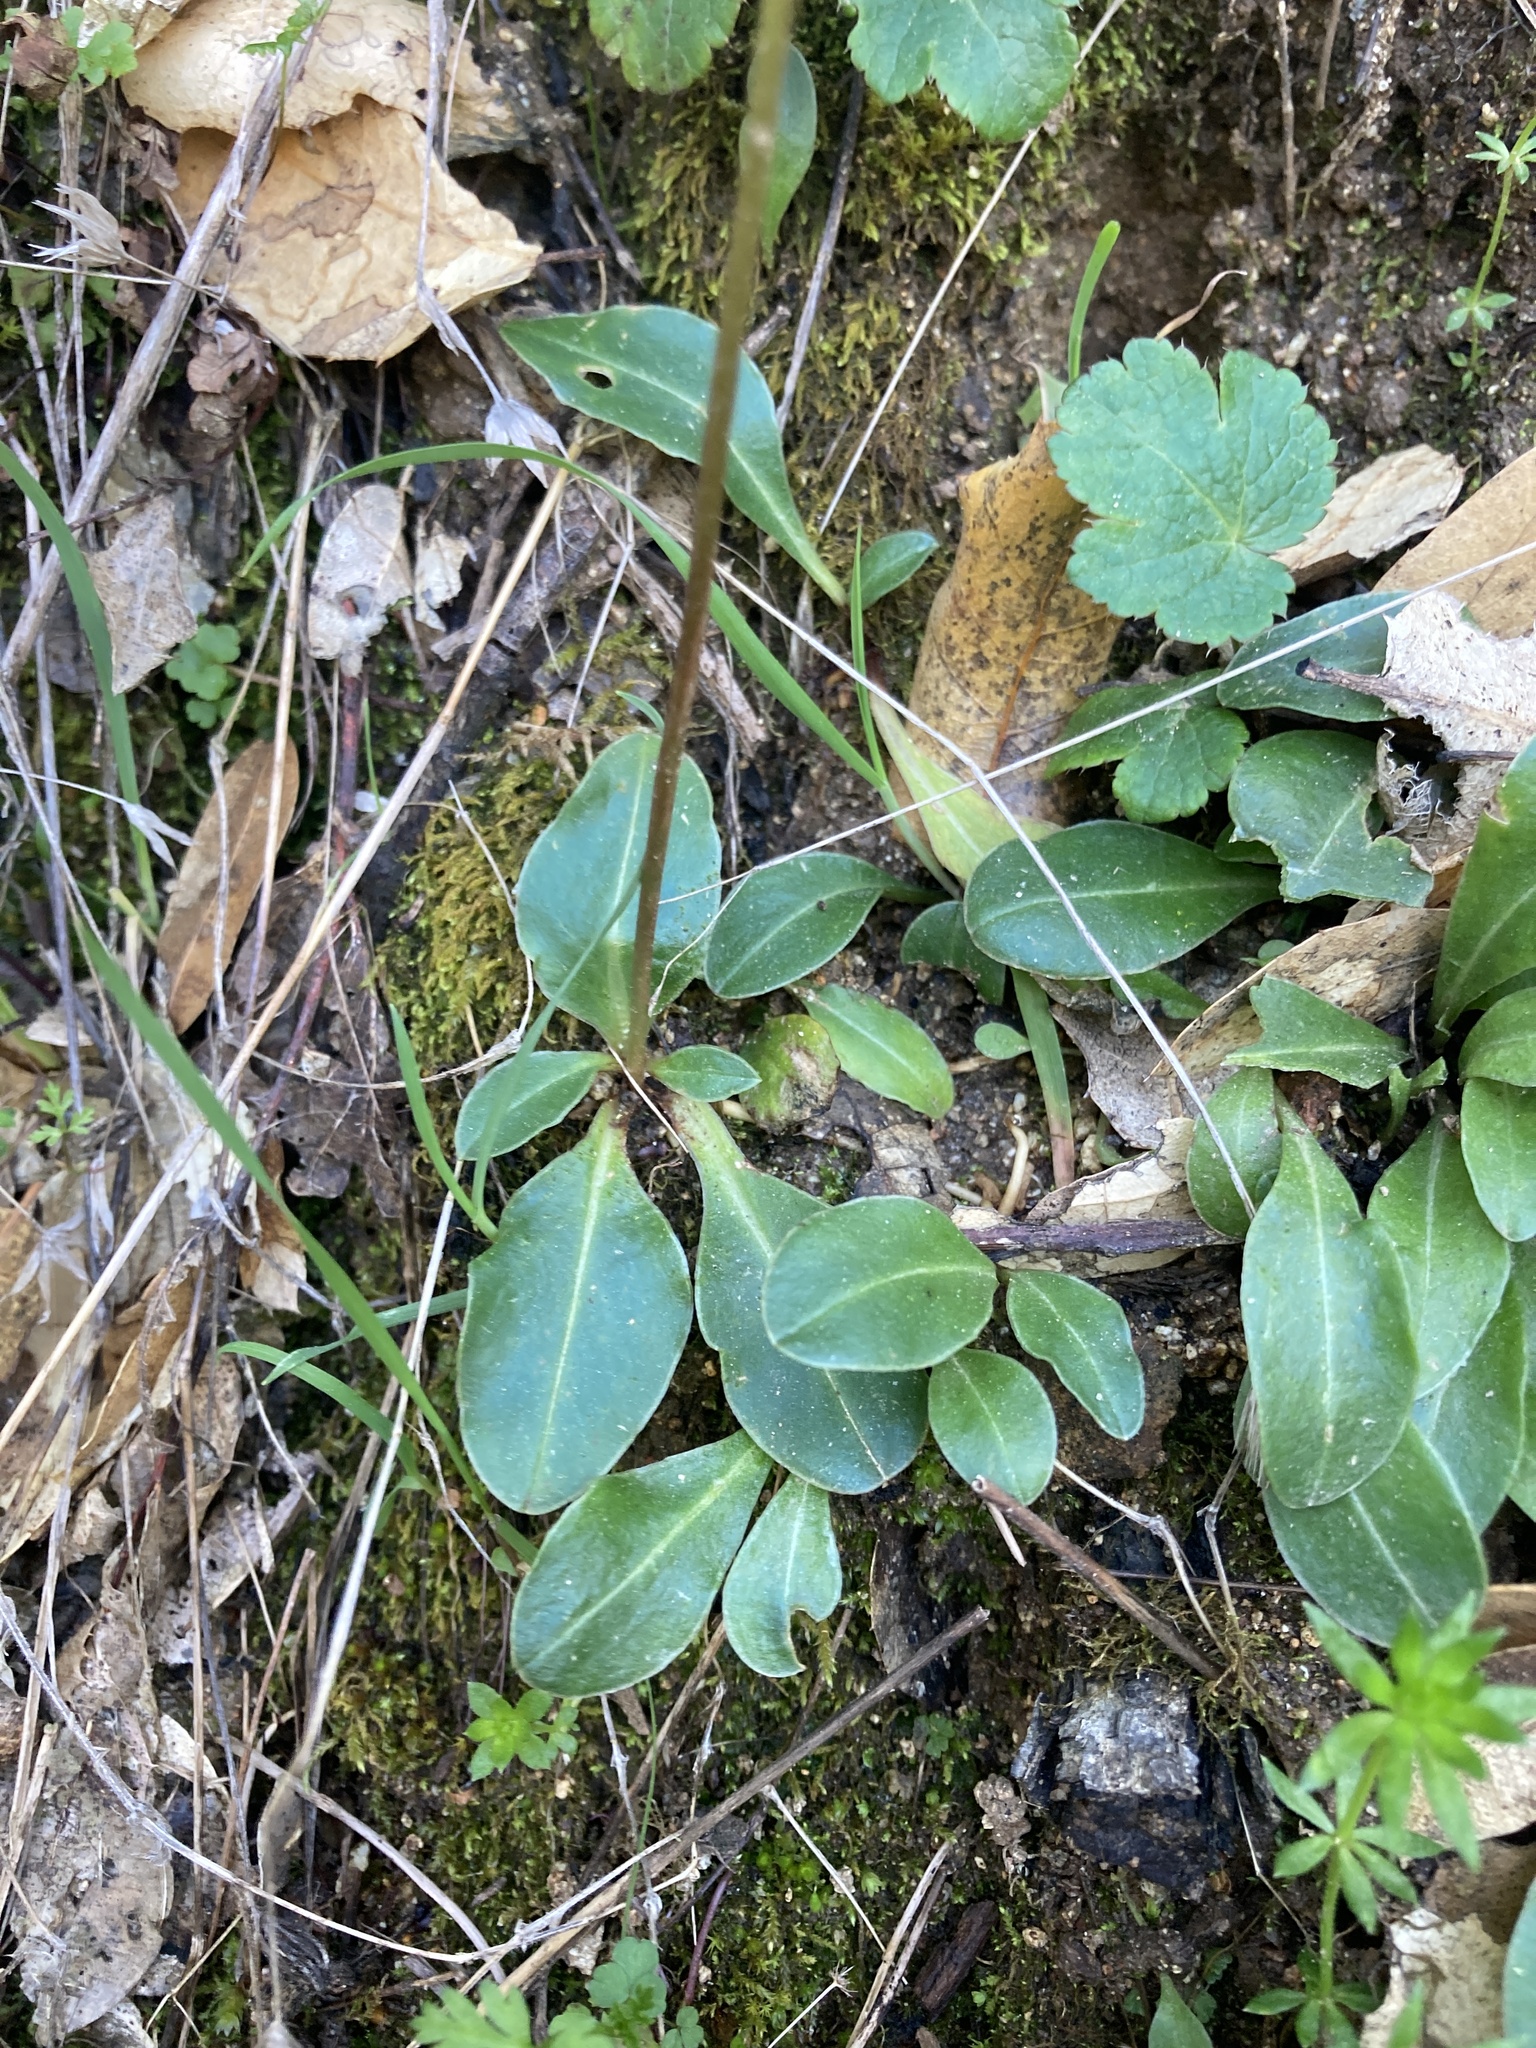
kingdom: Plantae
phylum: Tracheophyta
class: Magnoliopsida
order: Ericales
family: Primulaceae
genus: Dodecatheon
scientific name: Dodecatheon hendersonii
